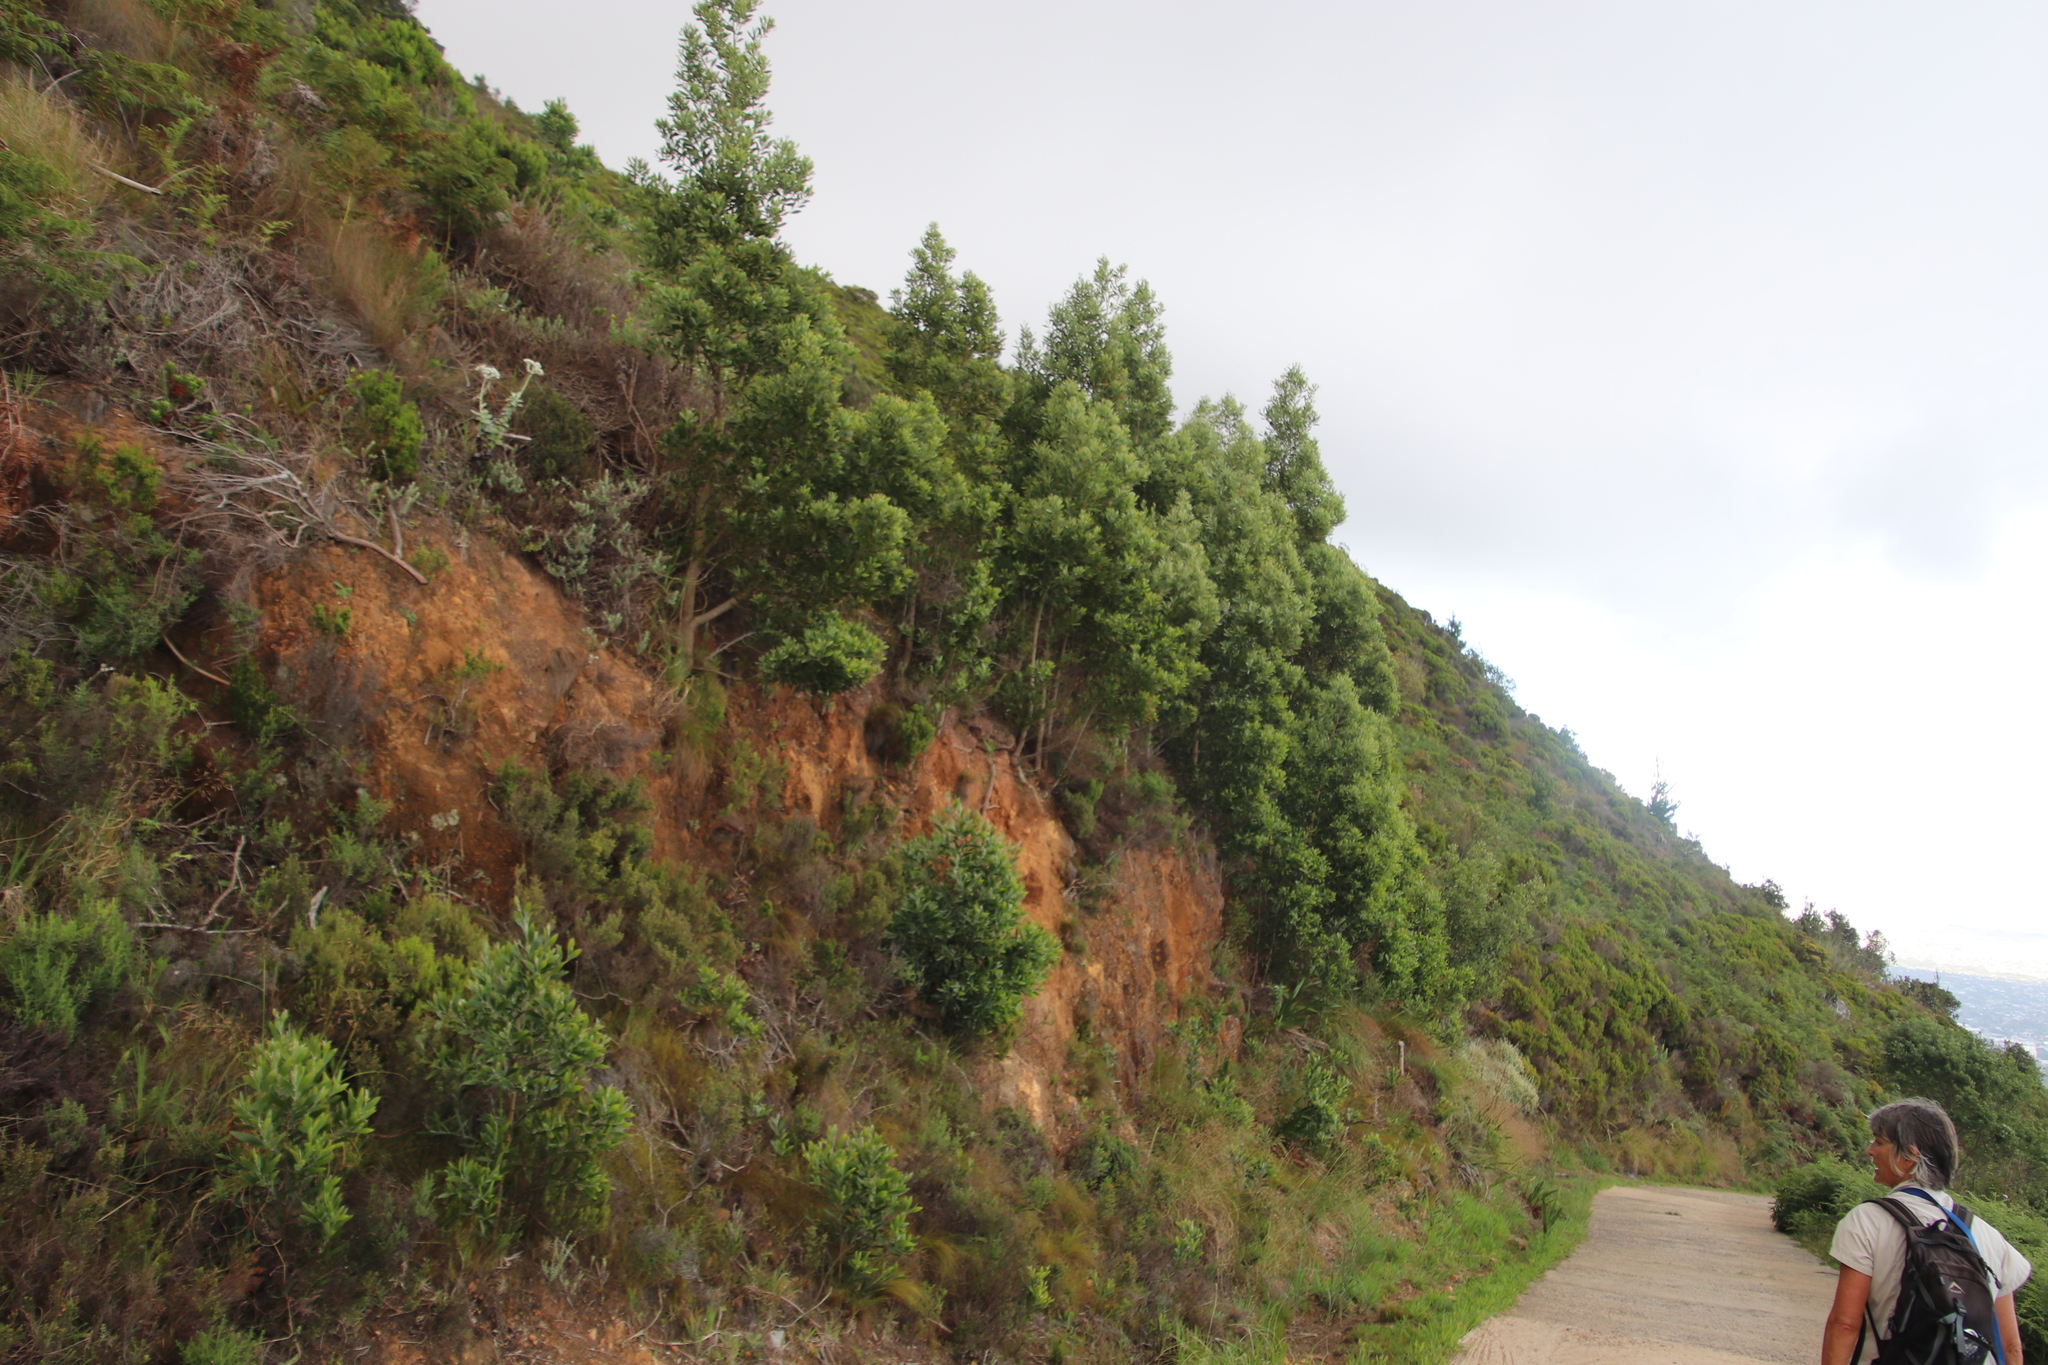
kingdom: Plantae
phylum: Tracheophyta
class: Magnoliopsida
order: Fabales
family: Fabaceae
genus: Acacia
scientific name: Acacia melanoxylon
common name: Blackwood
